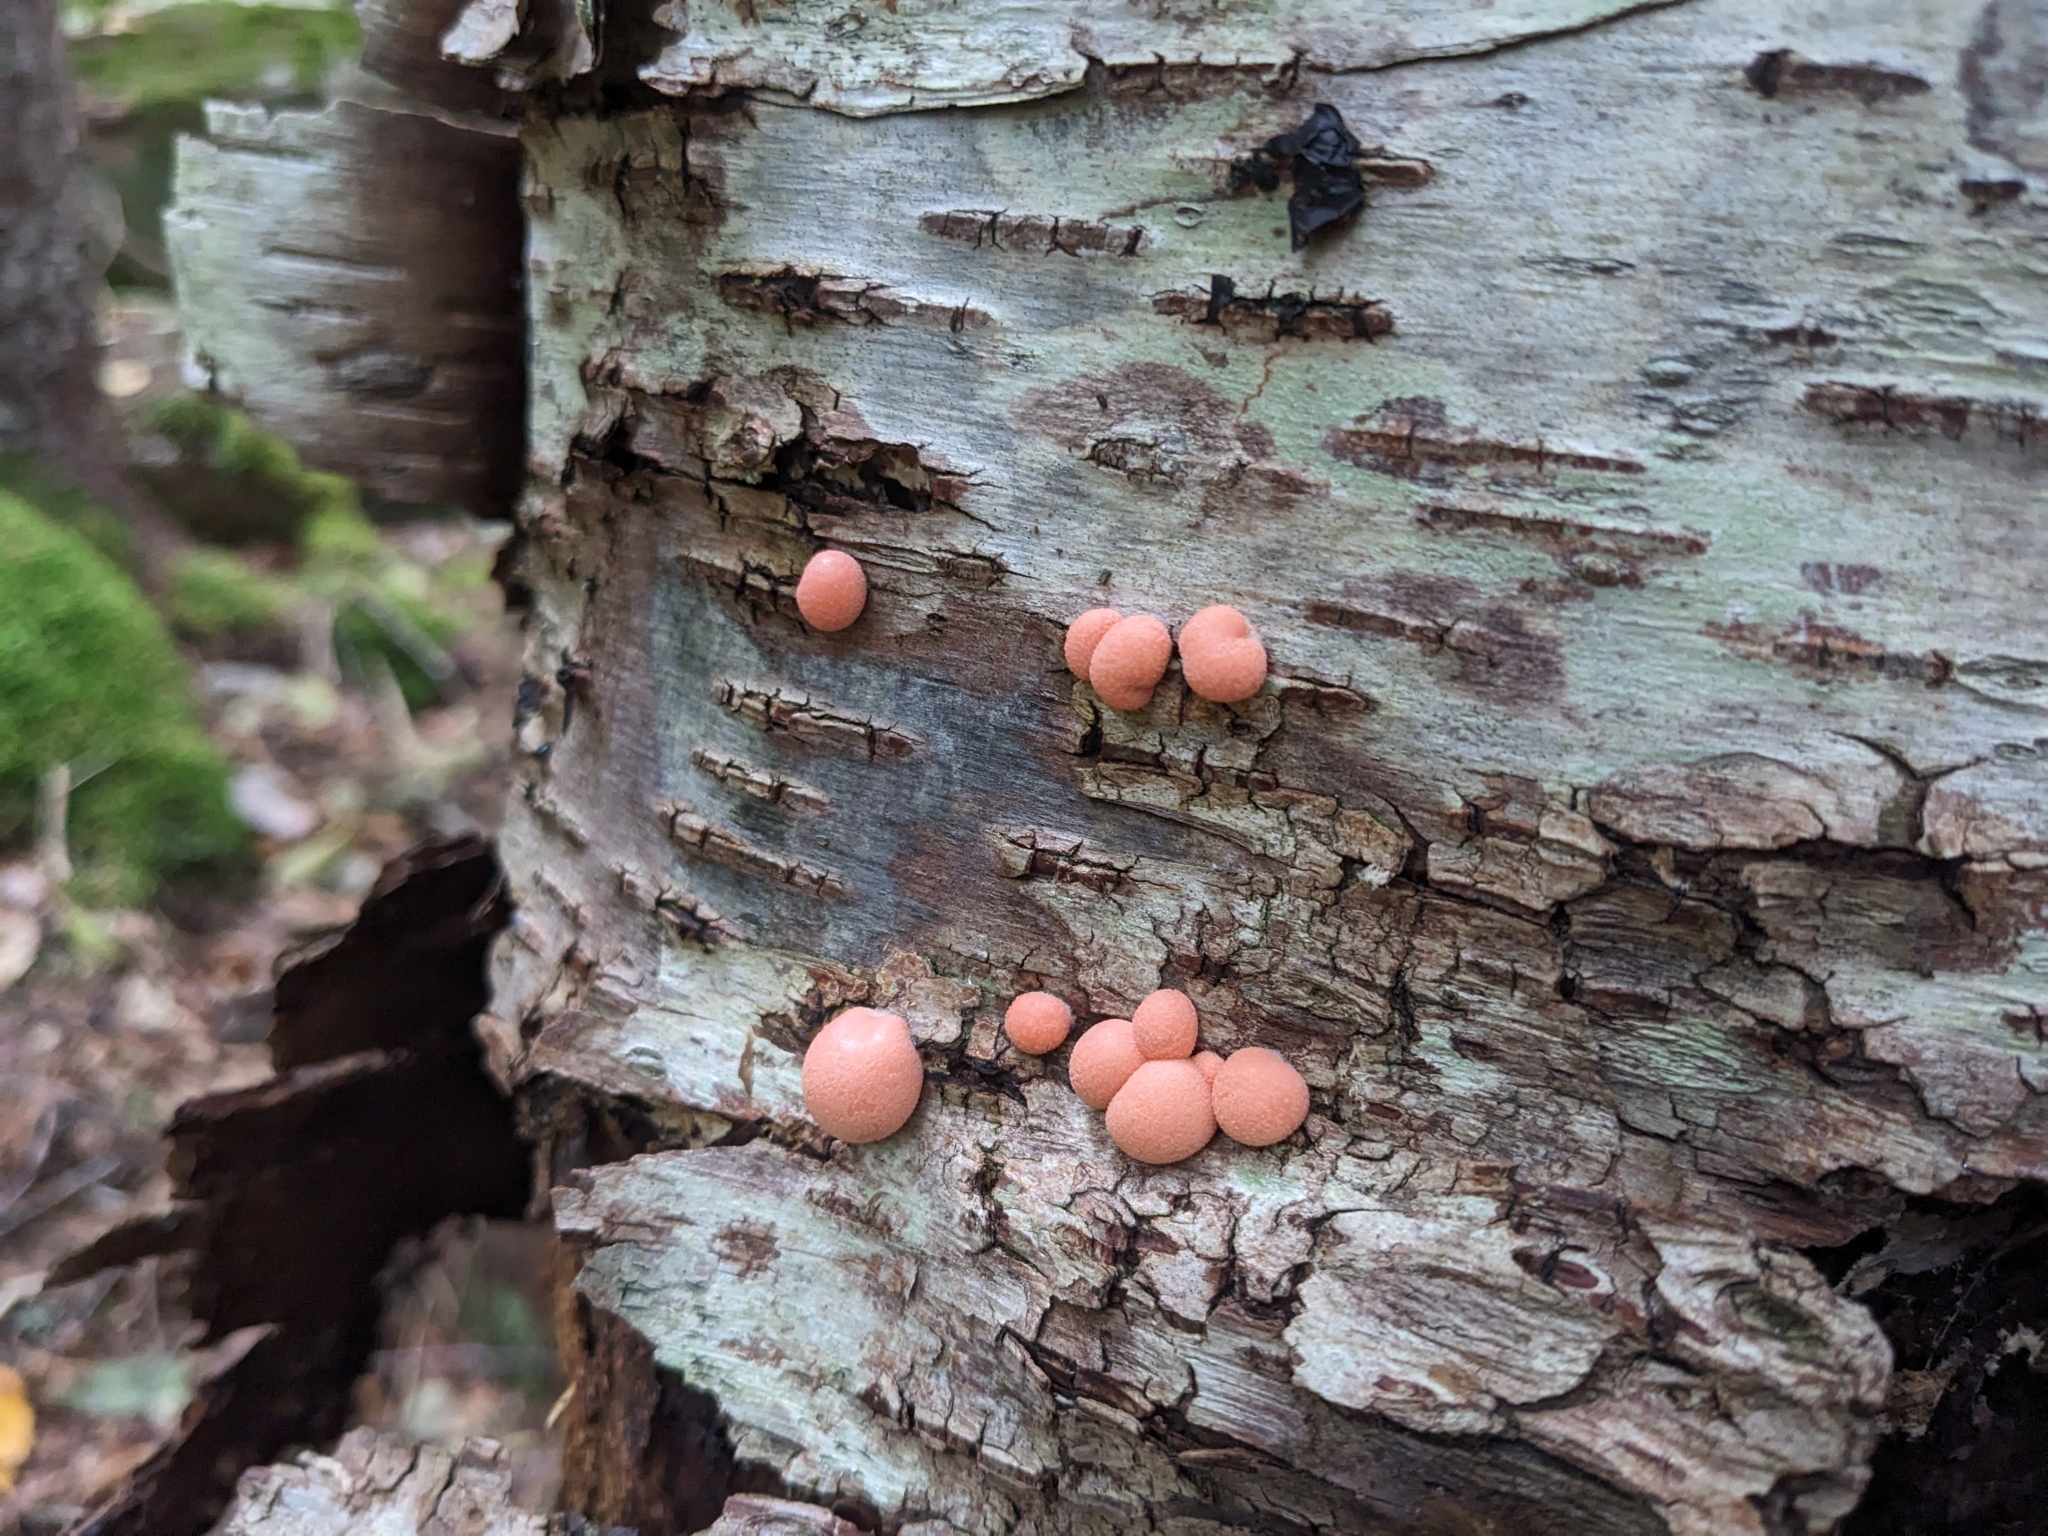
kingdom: Protozoa
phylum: Mycetozoa
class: Myxomycetes
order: Cribrariales
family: Tubiferaceae
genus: Lycogala
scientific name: Lycogala epidendrum
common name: Wolf's milk
